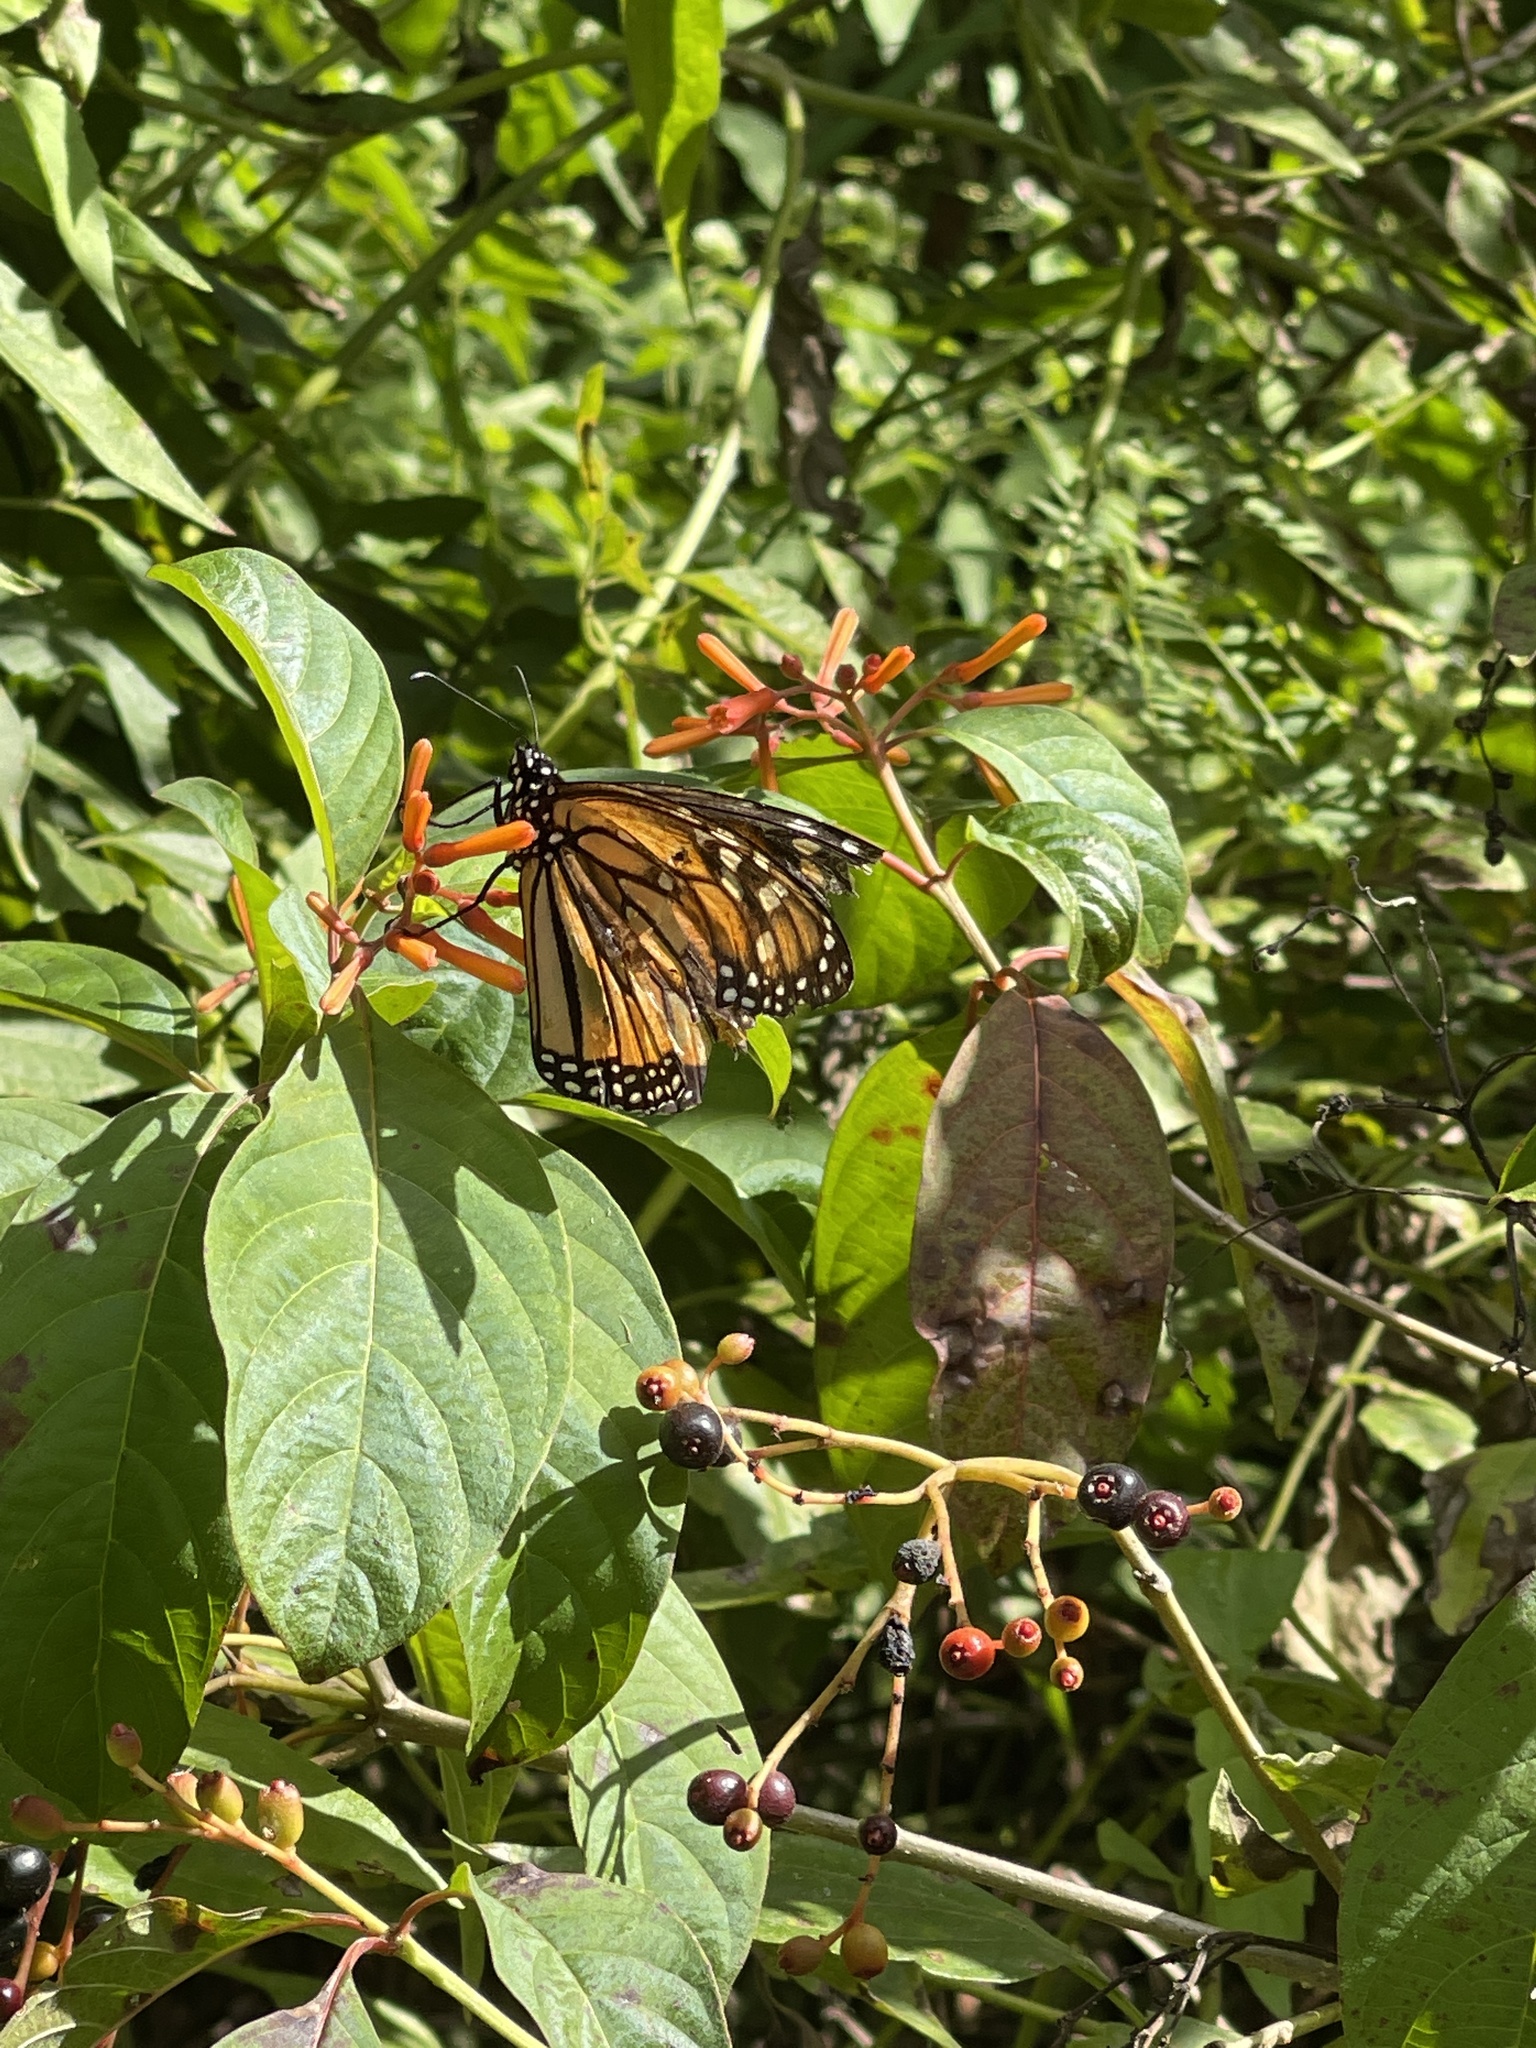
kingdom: Animalia
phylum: Arthropoda
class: Insecta
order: Lepidoptera
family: Nymphalidae
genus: Danaus
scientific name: Danaus plexippus
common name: Monarch
